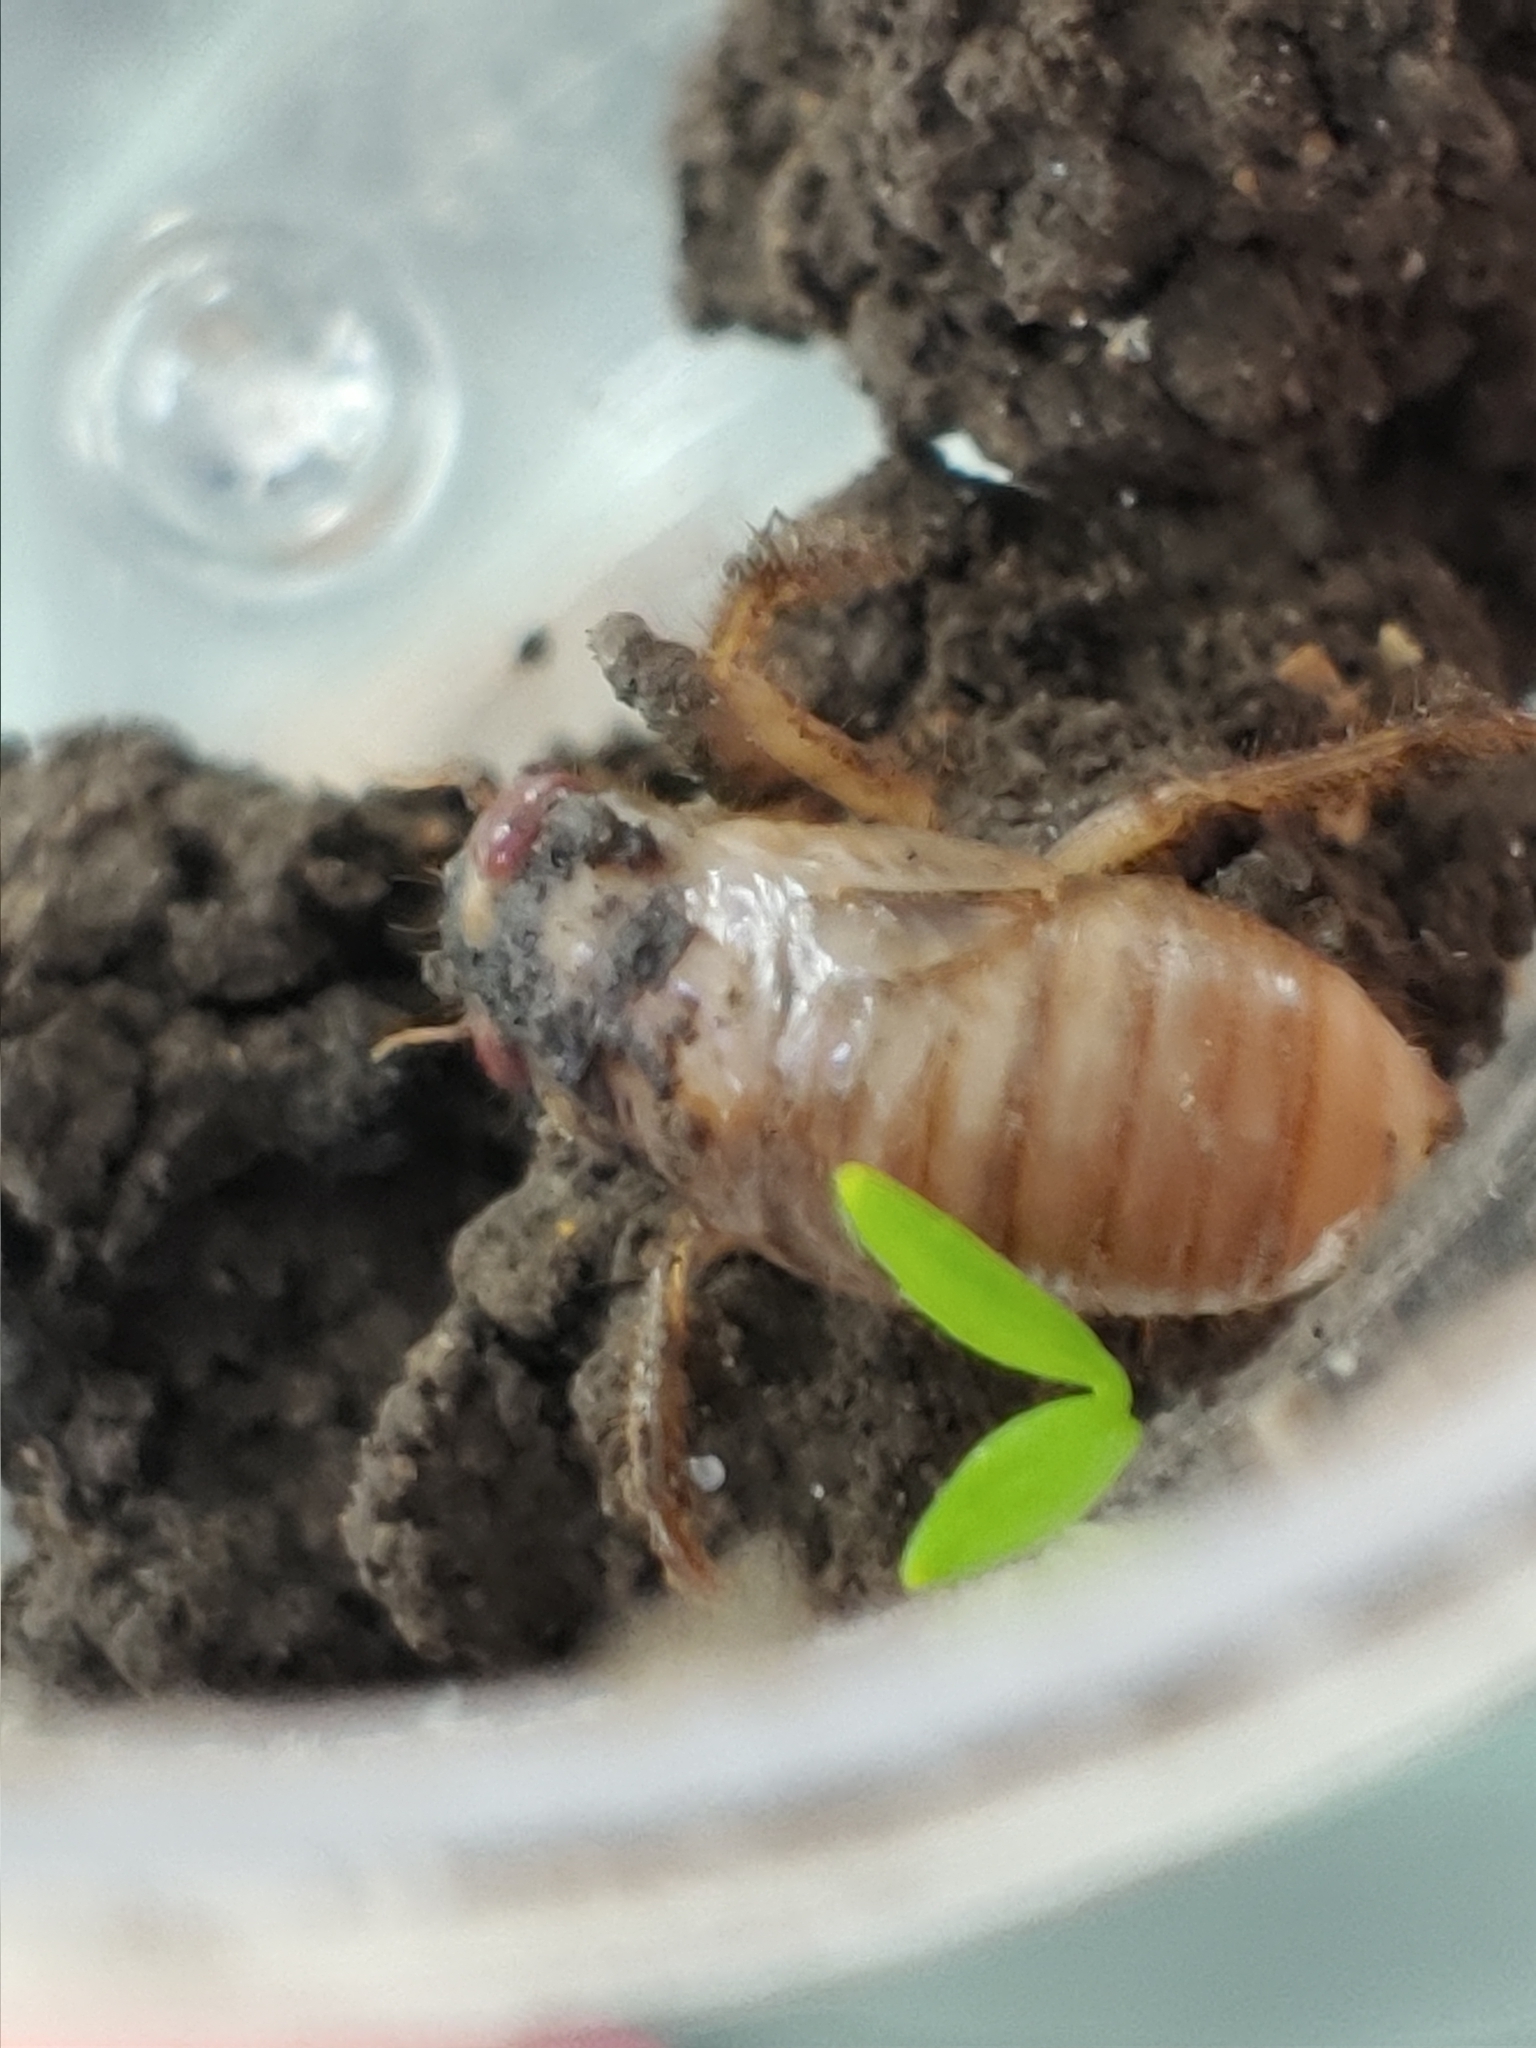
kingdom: Animalia
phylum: Arthropoda
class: Insecta
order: Hemiptera
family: Cicadidae
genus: Magicicada
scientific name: Magicicada
